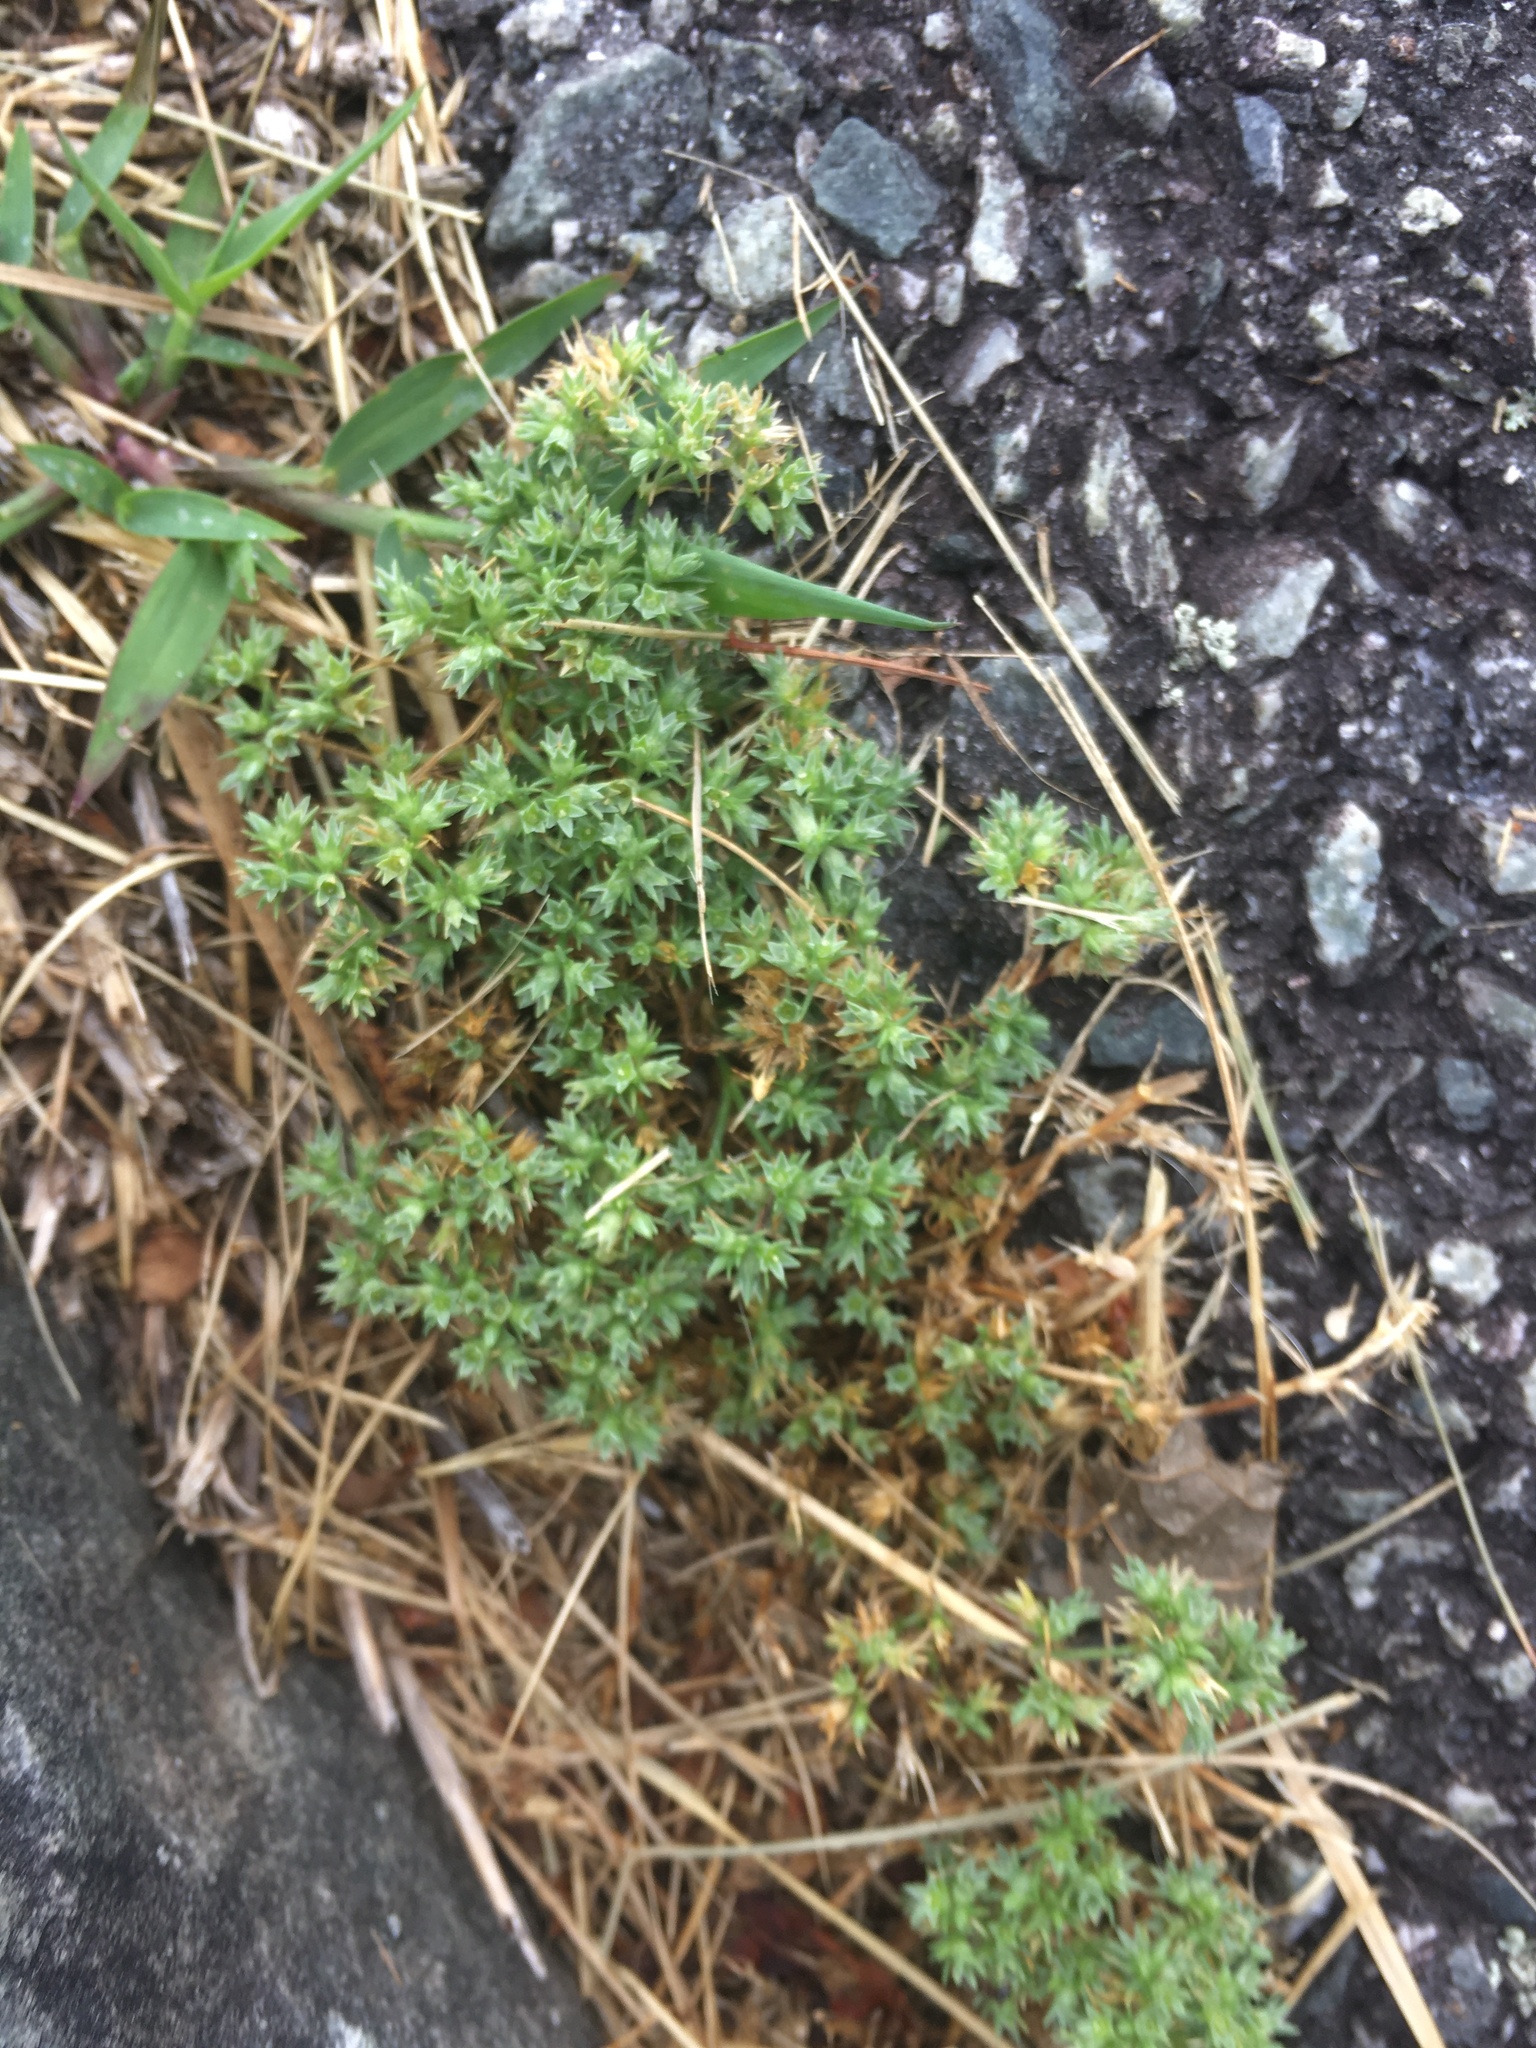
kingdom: Plantae
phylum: Tracheophyta
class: Magnoliopsida
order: Caryophyllales
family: Caryophyllaceae
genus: Scleranthus
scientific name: Scleranthus annuus
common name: Annual knawel
